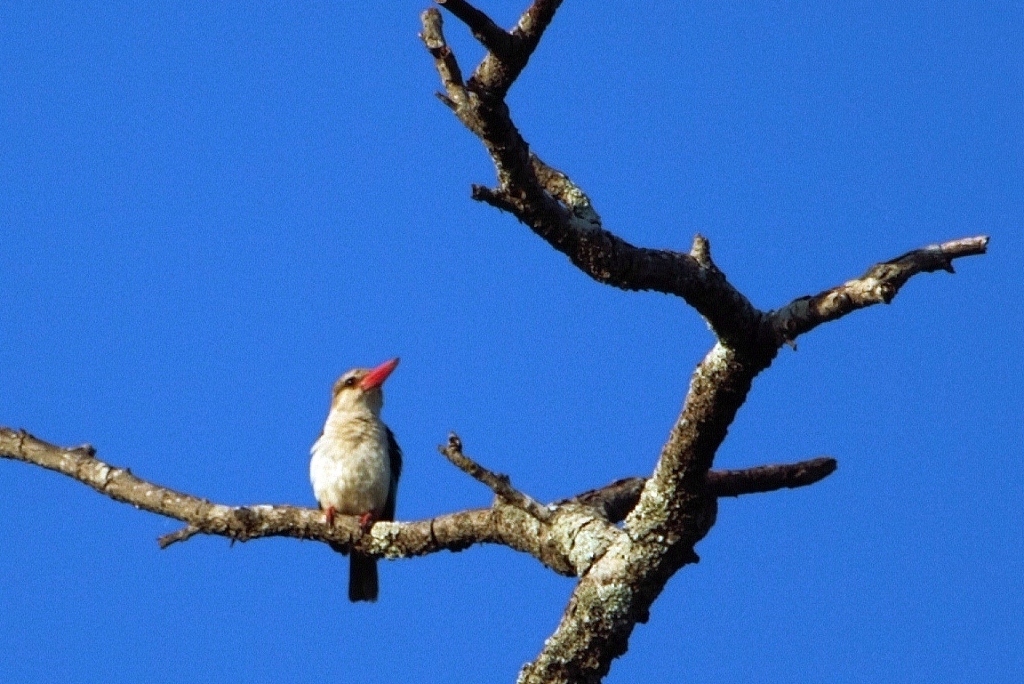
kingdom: Animalia
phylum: Chordata
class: Aves
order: Coraciiformes
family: Alcedinidae
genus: Halcyon
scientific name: Halcyon albiventris
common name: Brown-hooded kingfisher
